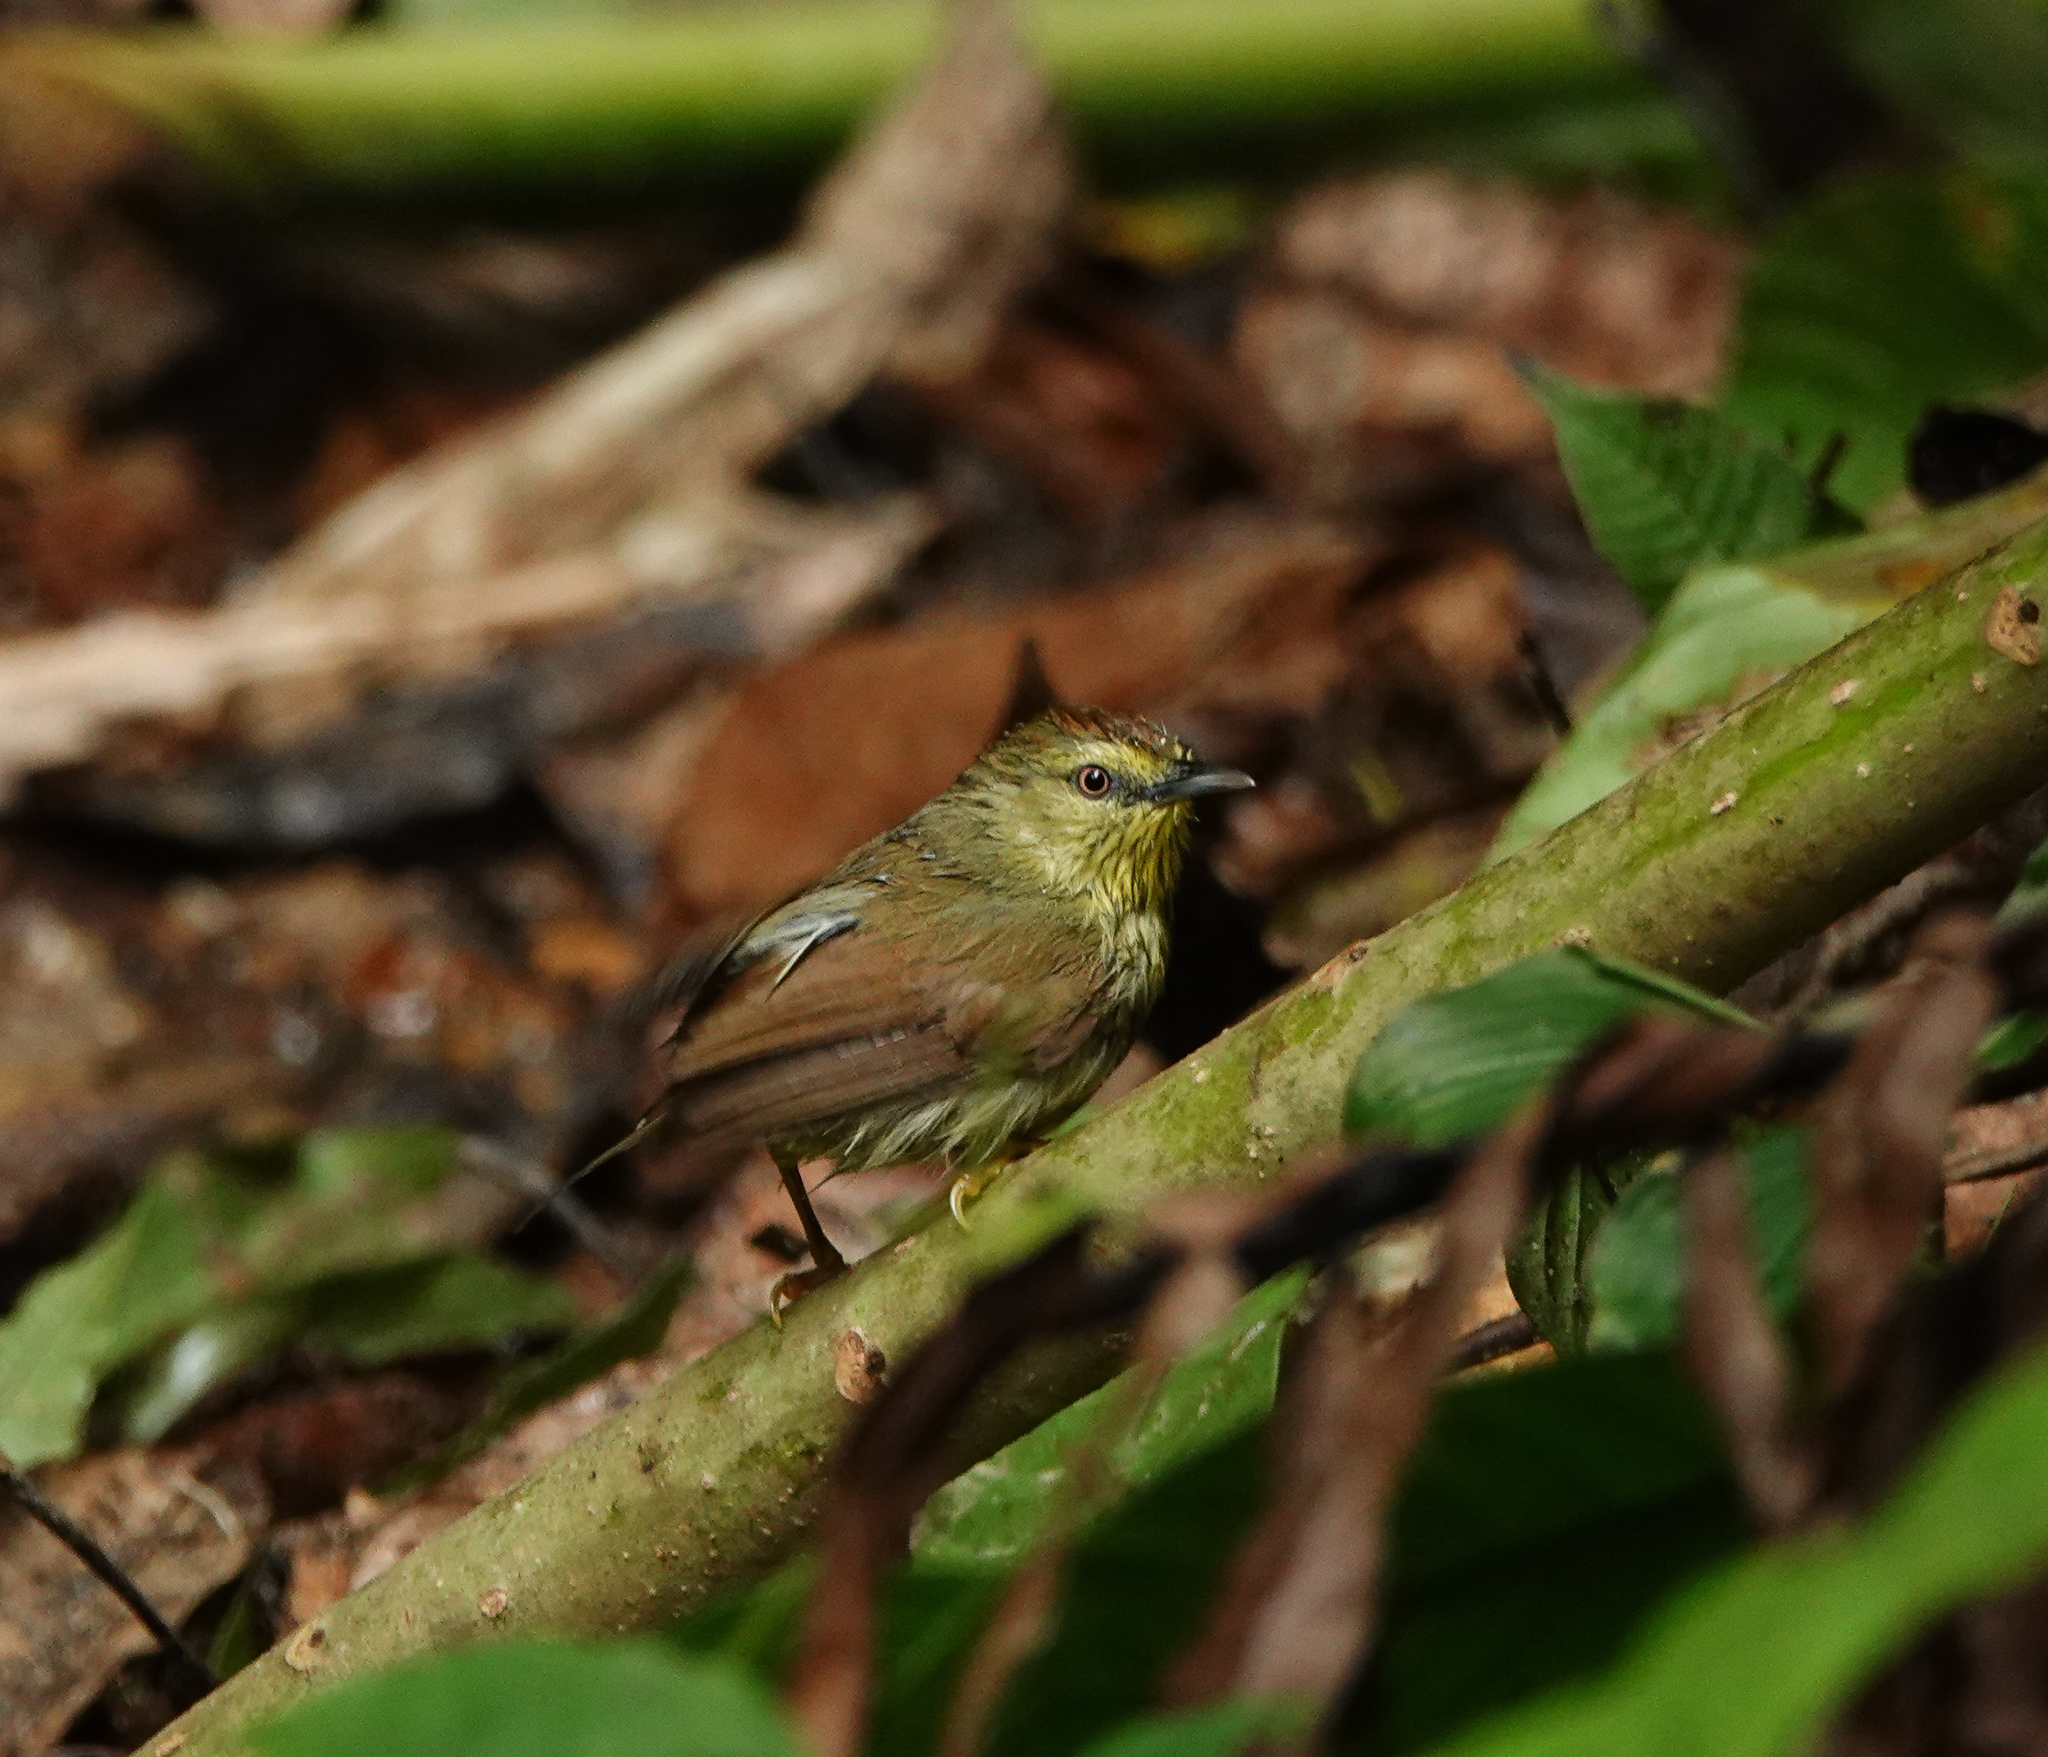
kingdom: Animalia
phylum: Chordata
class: Aves
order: Passeriformes
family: Timaliidae
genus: Macronus
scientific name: Macronus gularis
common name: Striped tit-babbler
